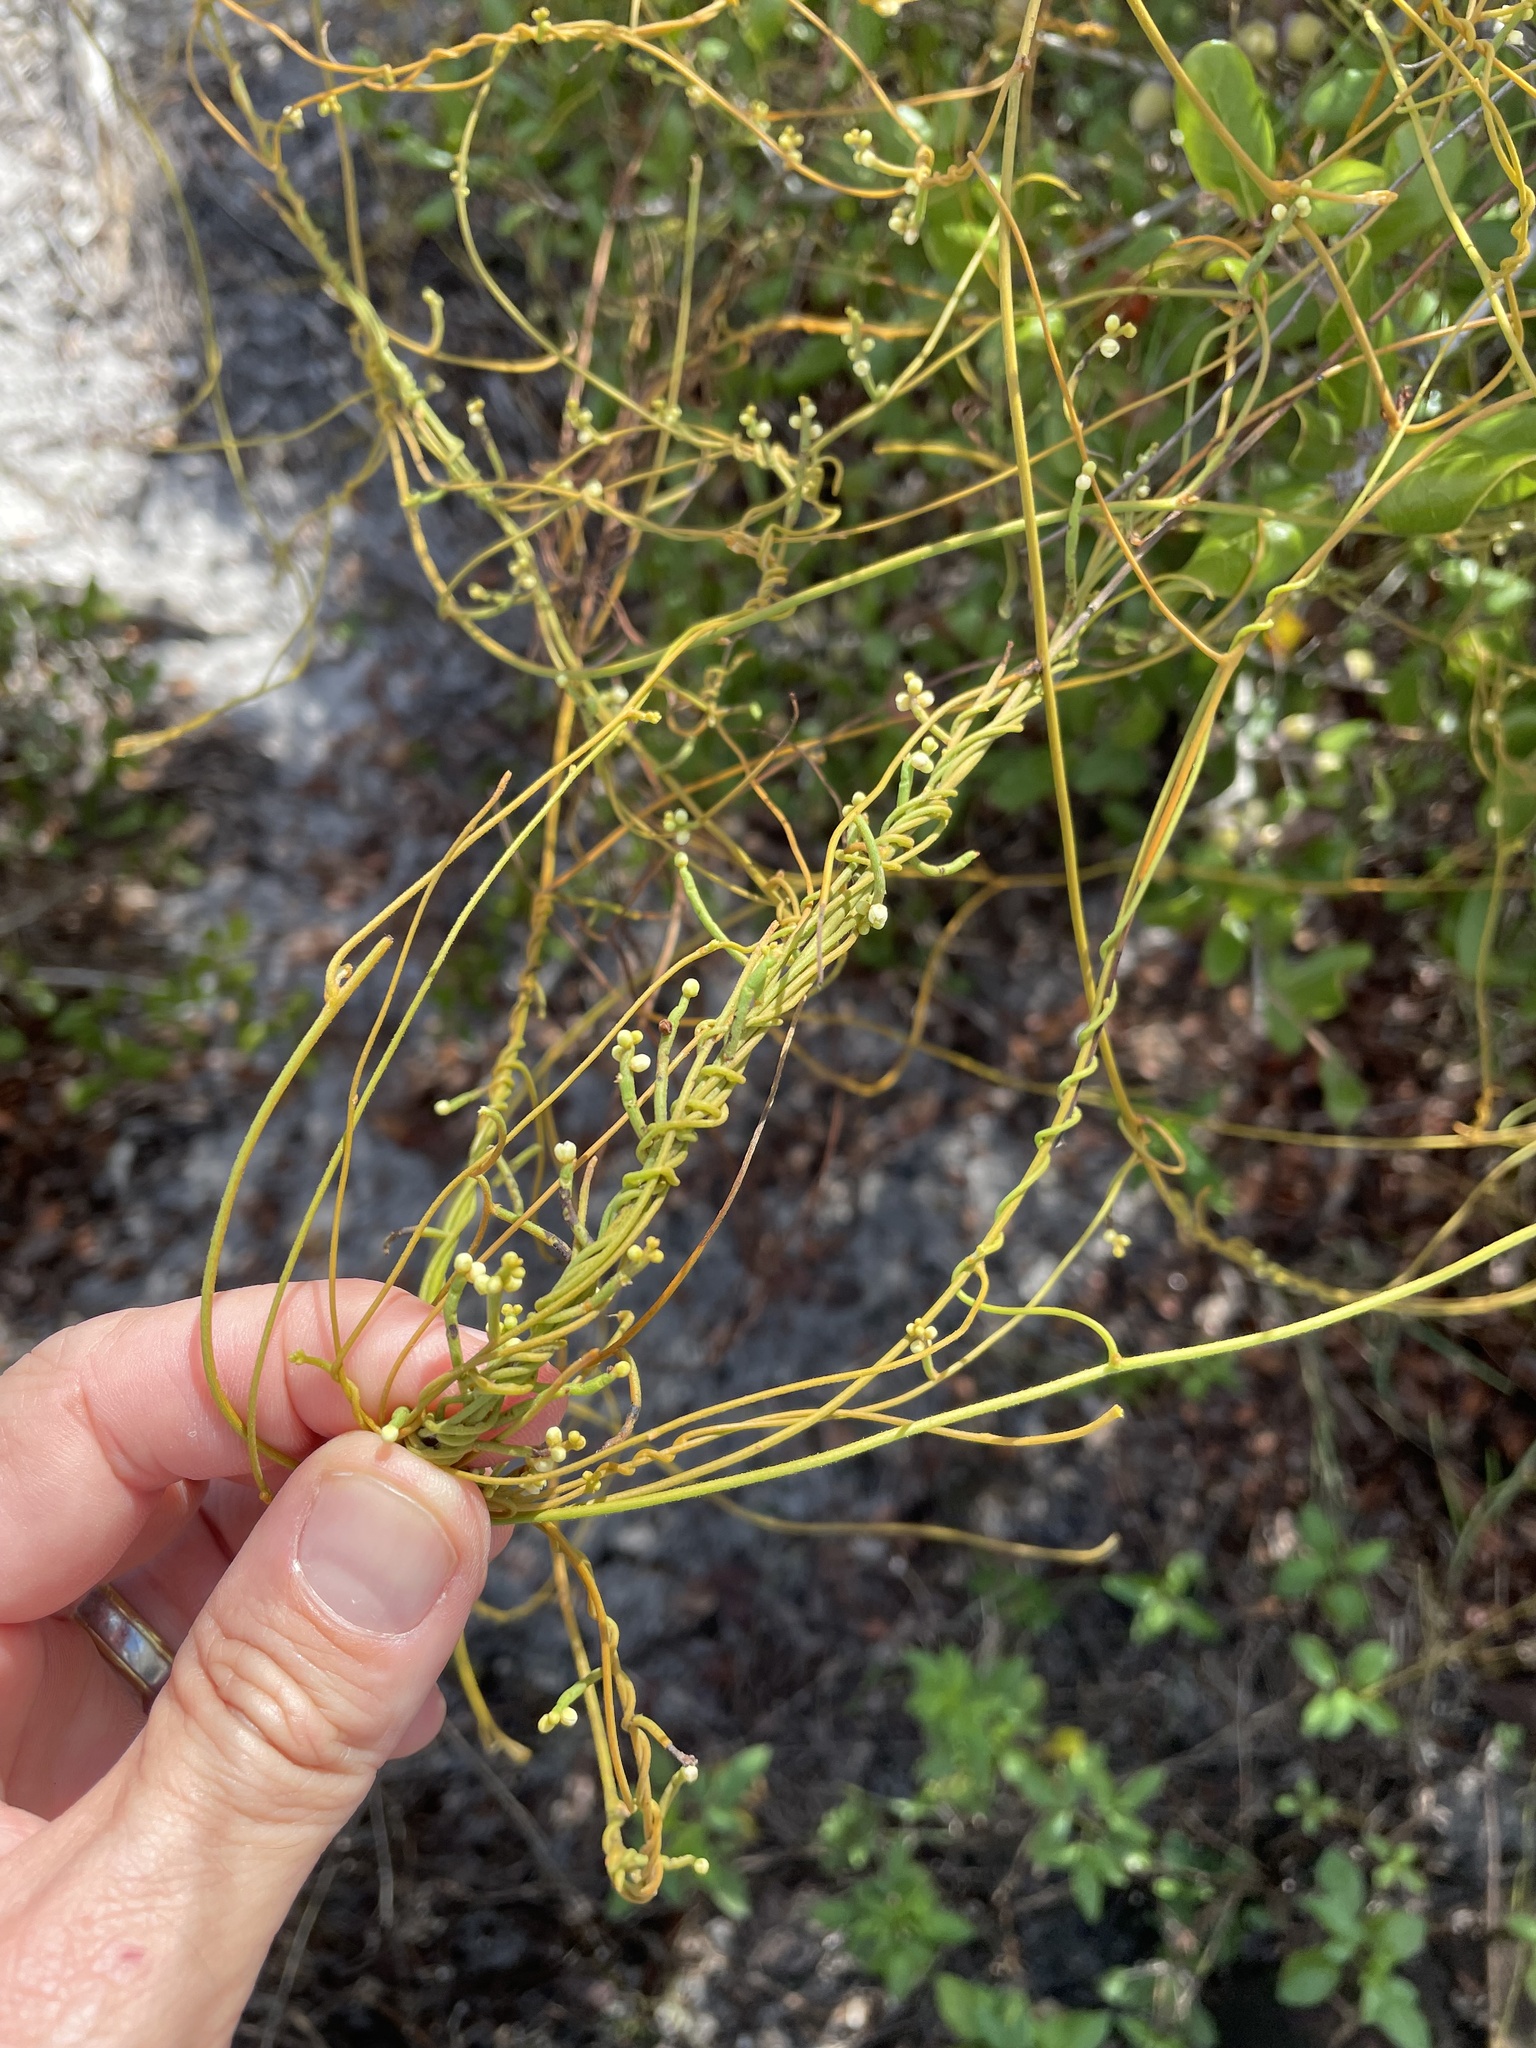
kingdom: Plantae
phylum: Tracheophyta
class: Magnoliopsida
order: Laurales
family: Lauraceae
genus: Cassytha
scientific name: Cassytha filiformis
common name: Dodder-laurel
